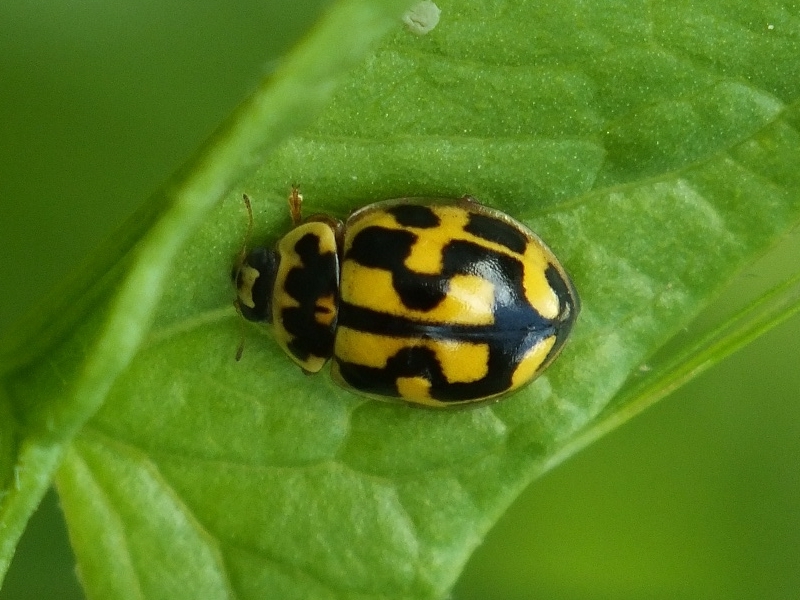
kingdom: Animalia
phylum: Arthropoda
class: Insecta
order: Coleoptera
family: Coccinellidae
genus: Propylaea
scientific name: Propylaea quatuordecimpunctata
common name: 14-spotted ladybird beetle
